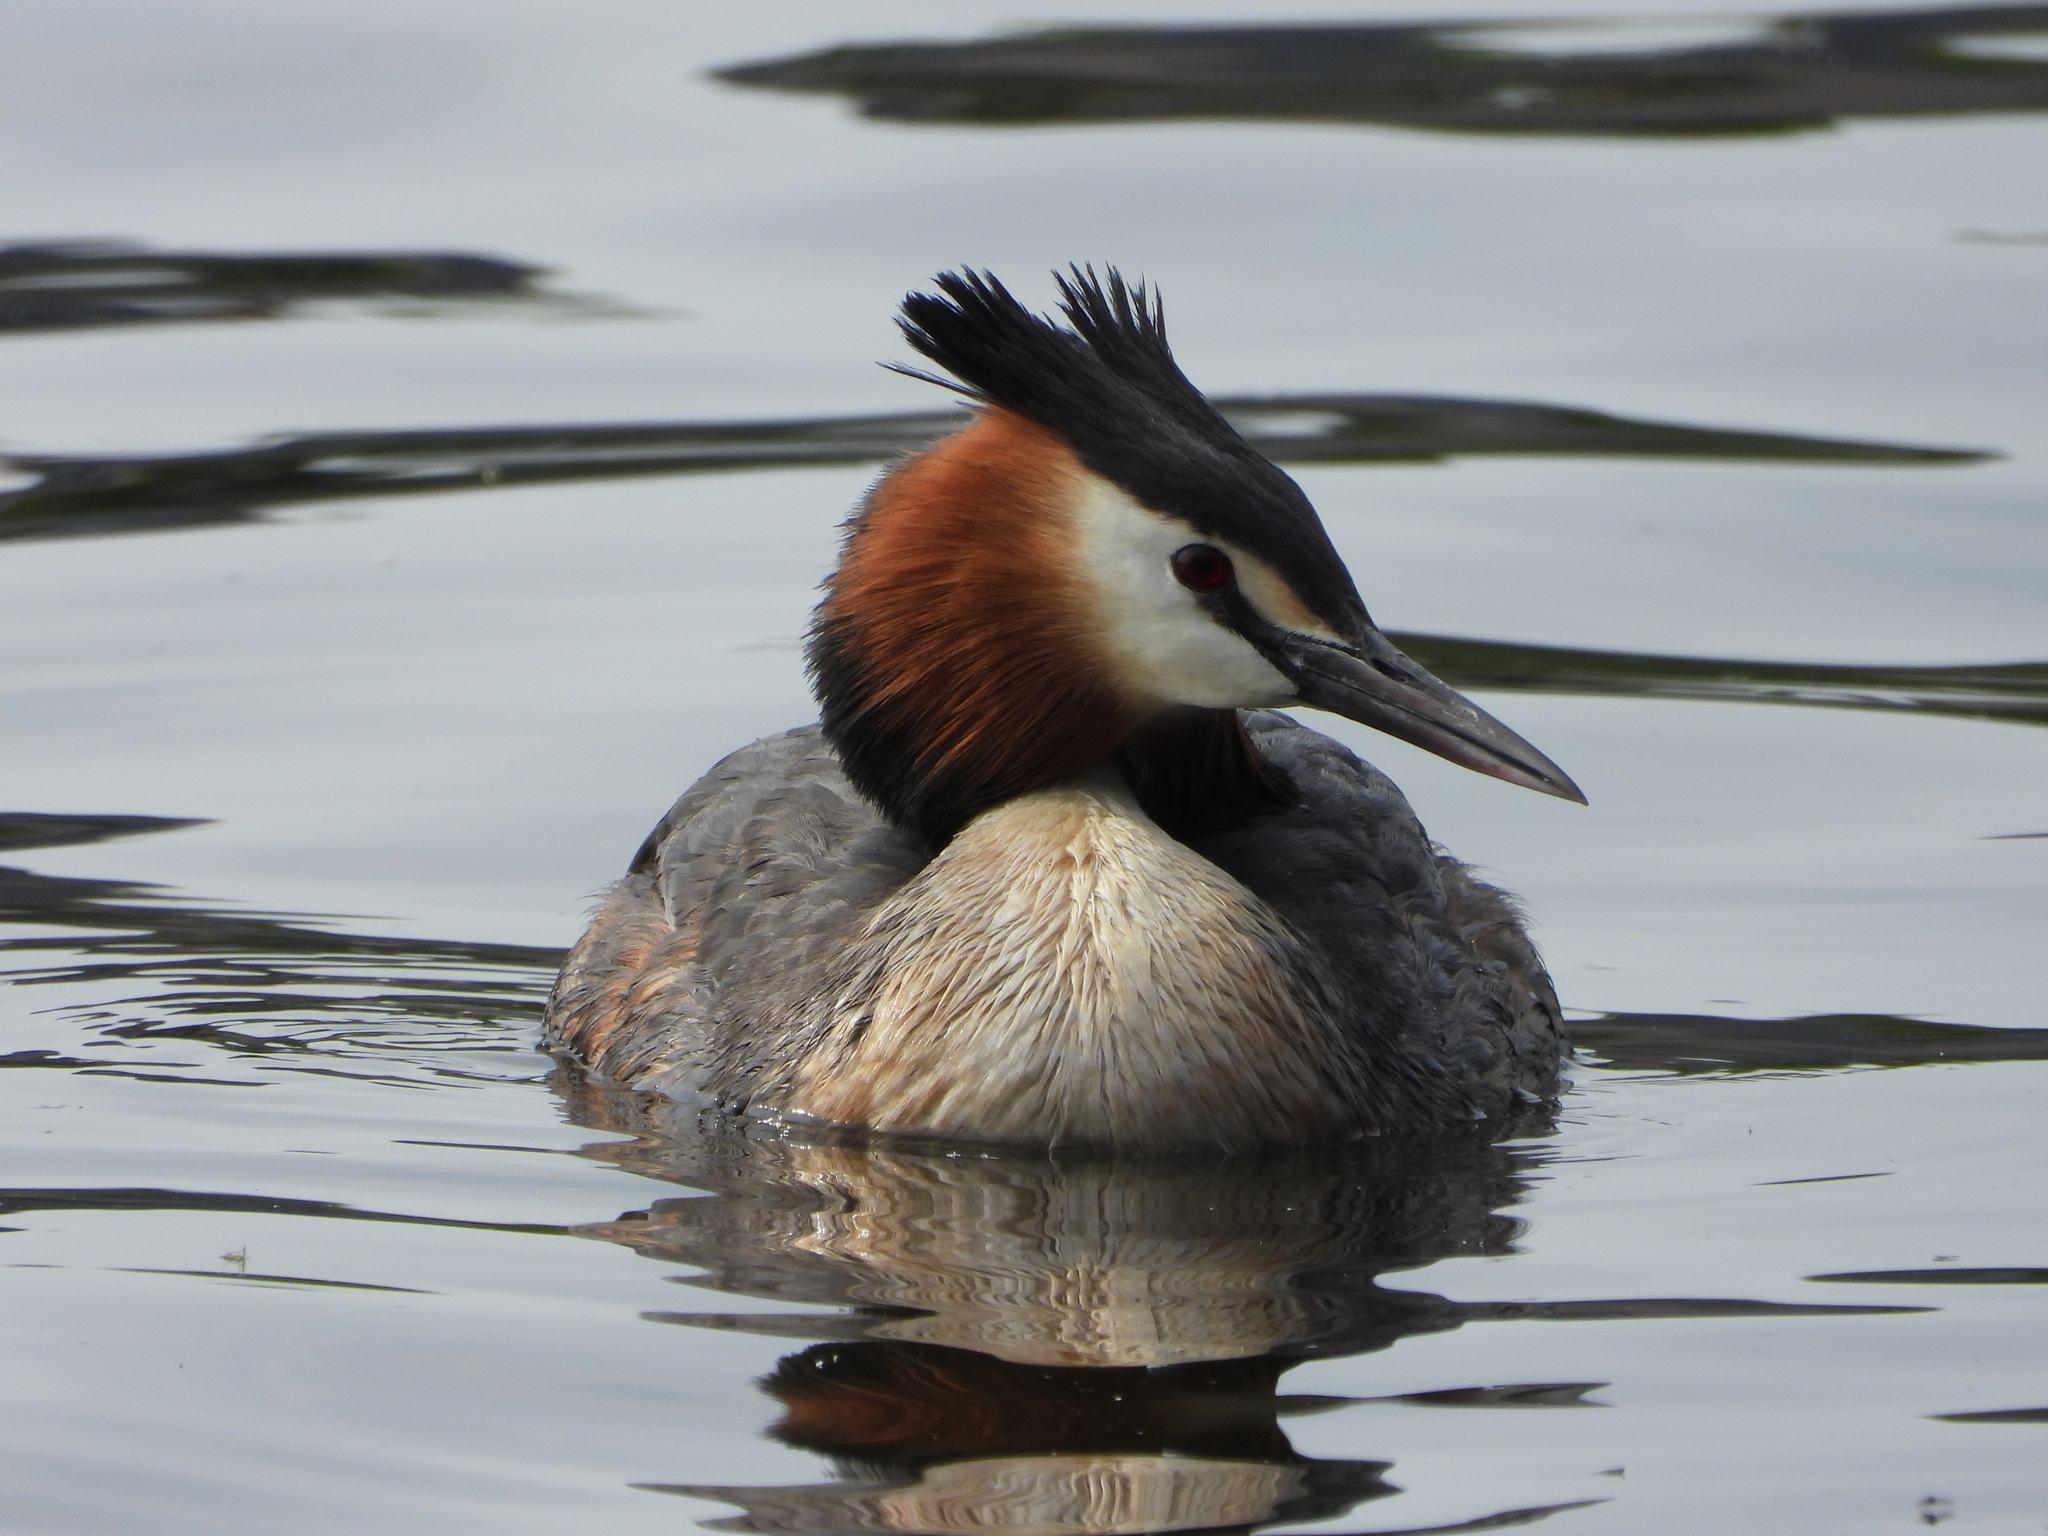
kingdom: Animalia
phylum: Chordata
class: Aves
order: Podicipediformes
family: Podicipedidae
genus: Podiceps
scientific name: Podiceps cristatus
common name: Great crested grebe
